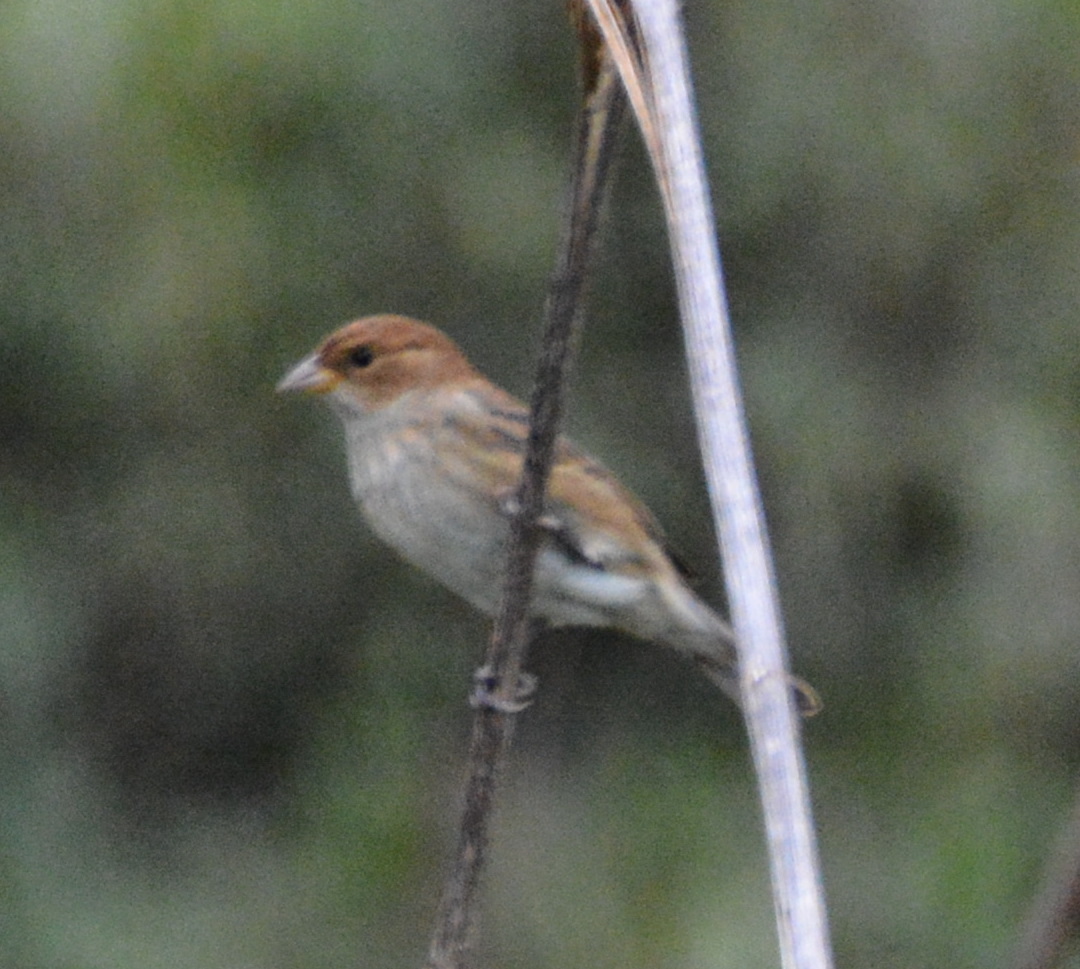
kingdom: Animalia
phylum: Chordata
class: Aves
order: Passeriformes
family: Cardinalidae
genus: Passerina
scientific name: Passerina cyanea
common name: Indigo bunting
